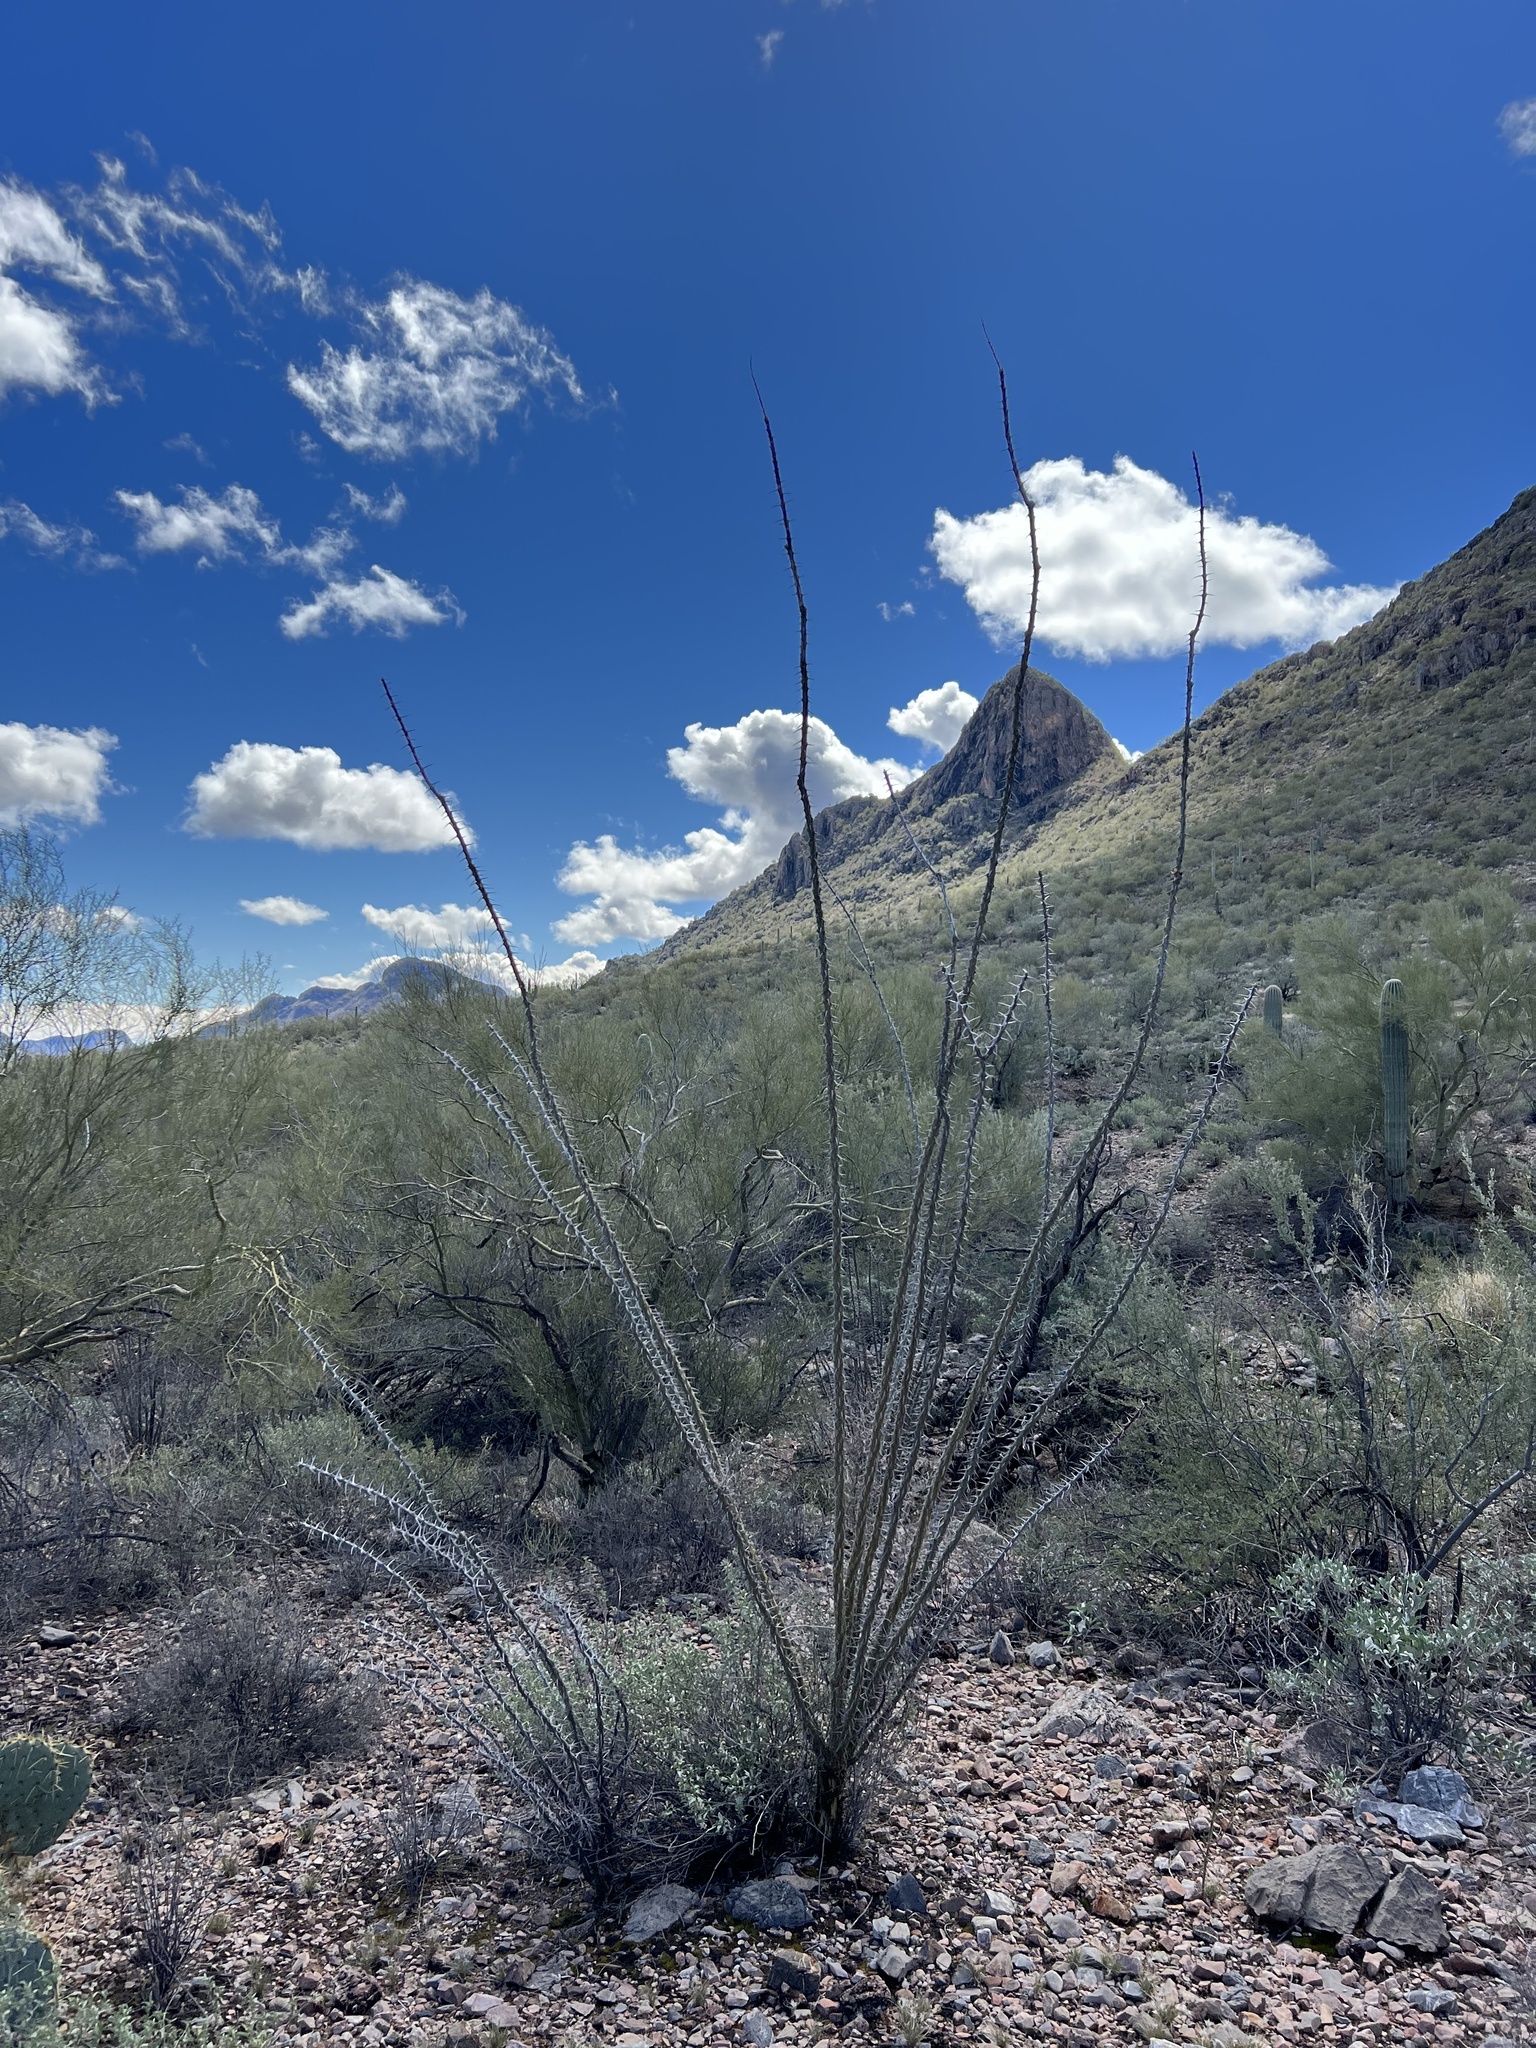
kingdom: Plantae
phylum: Tracheophyta
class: Magnoliopsida
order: Ericales
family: Fouquieriaceae
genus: Fouquieria
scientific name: Fouquieria splendens
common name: Vine-cactus
